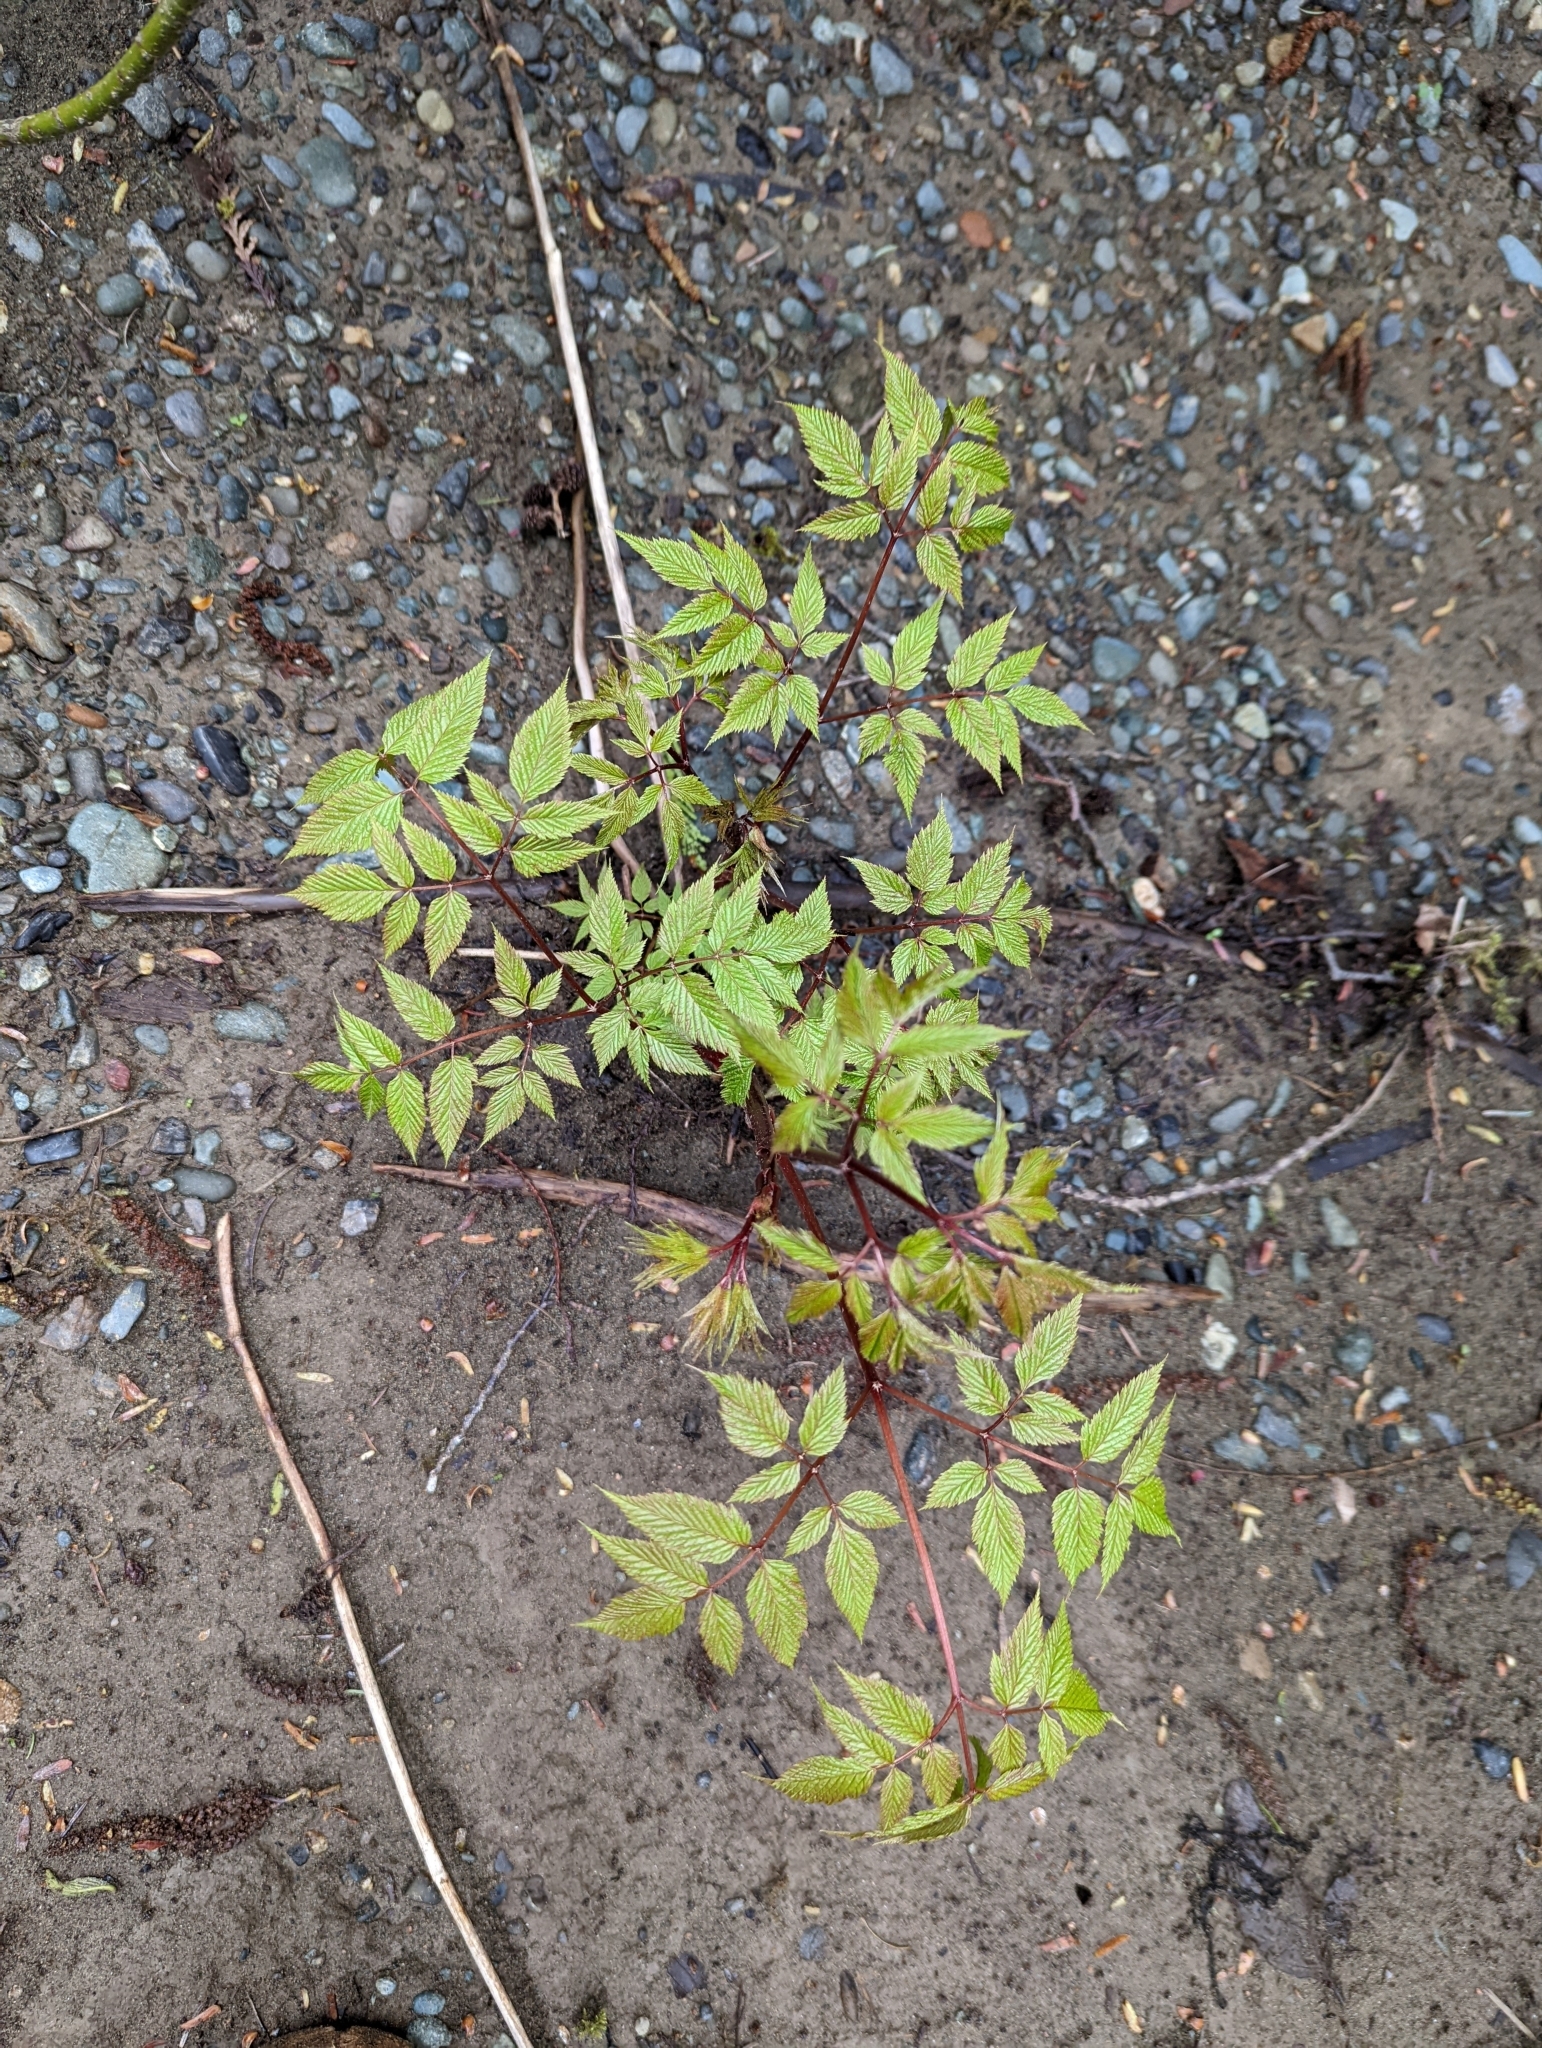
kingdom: Plantae
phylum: Tracheophyta
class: Magnoliopsida
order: Rosales
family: Rosaceae
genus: Aruncus
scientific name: Aruncus dioicus
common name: Buck's-beard
